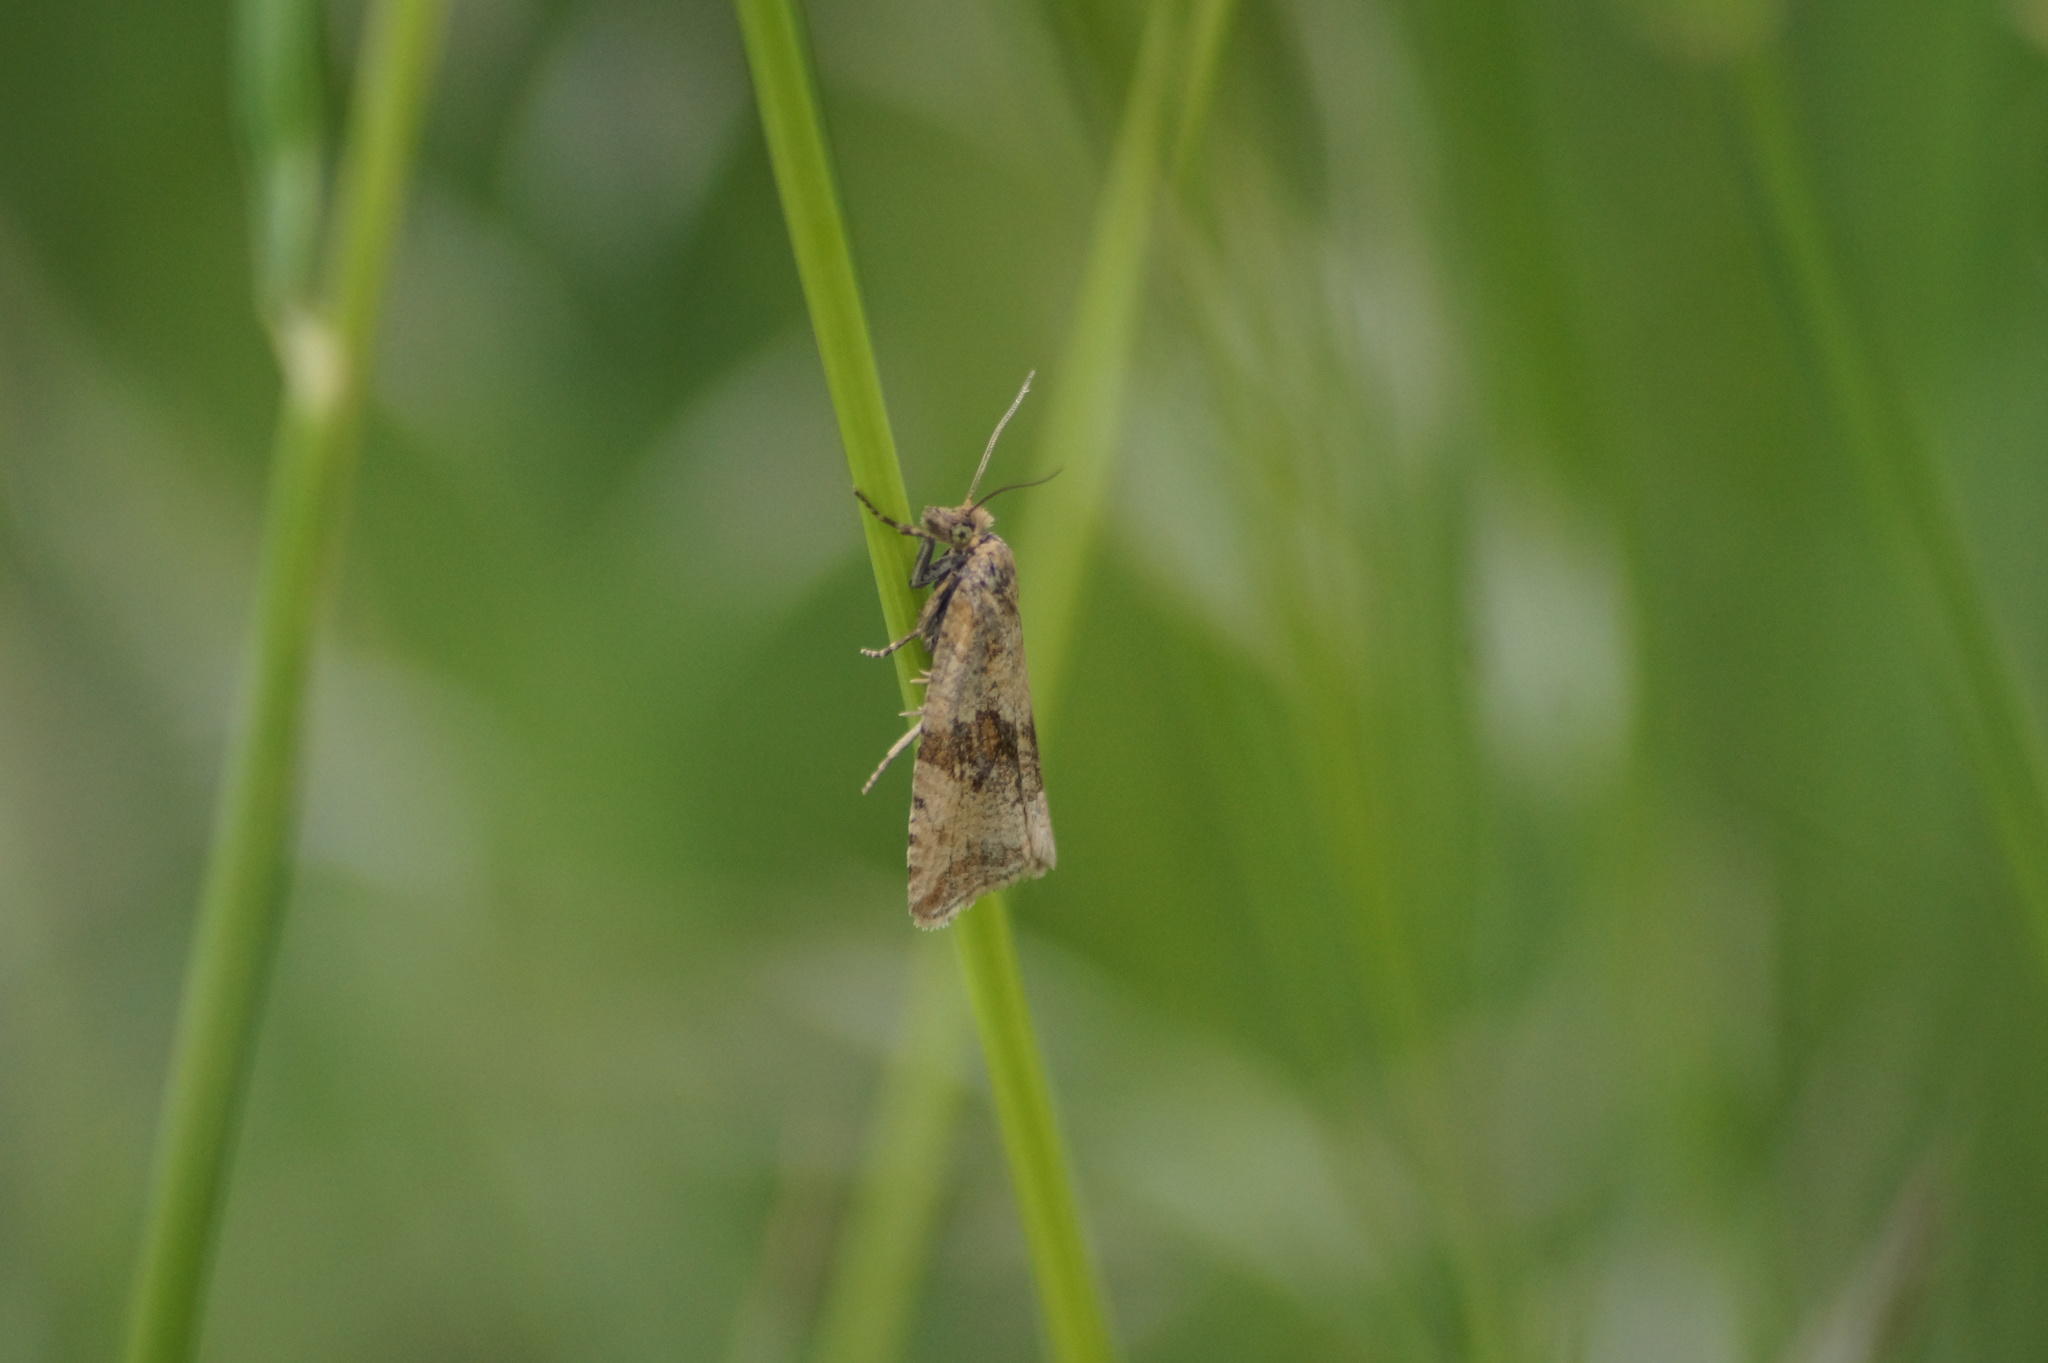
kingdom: Animalia
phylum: Arthropoda
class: Insecta
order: Lepidoptera
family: Tortricidae
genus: Celypha
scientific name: Celypha striana
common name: Barred marble
